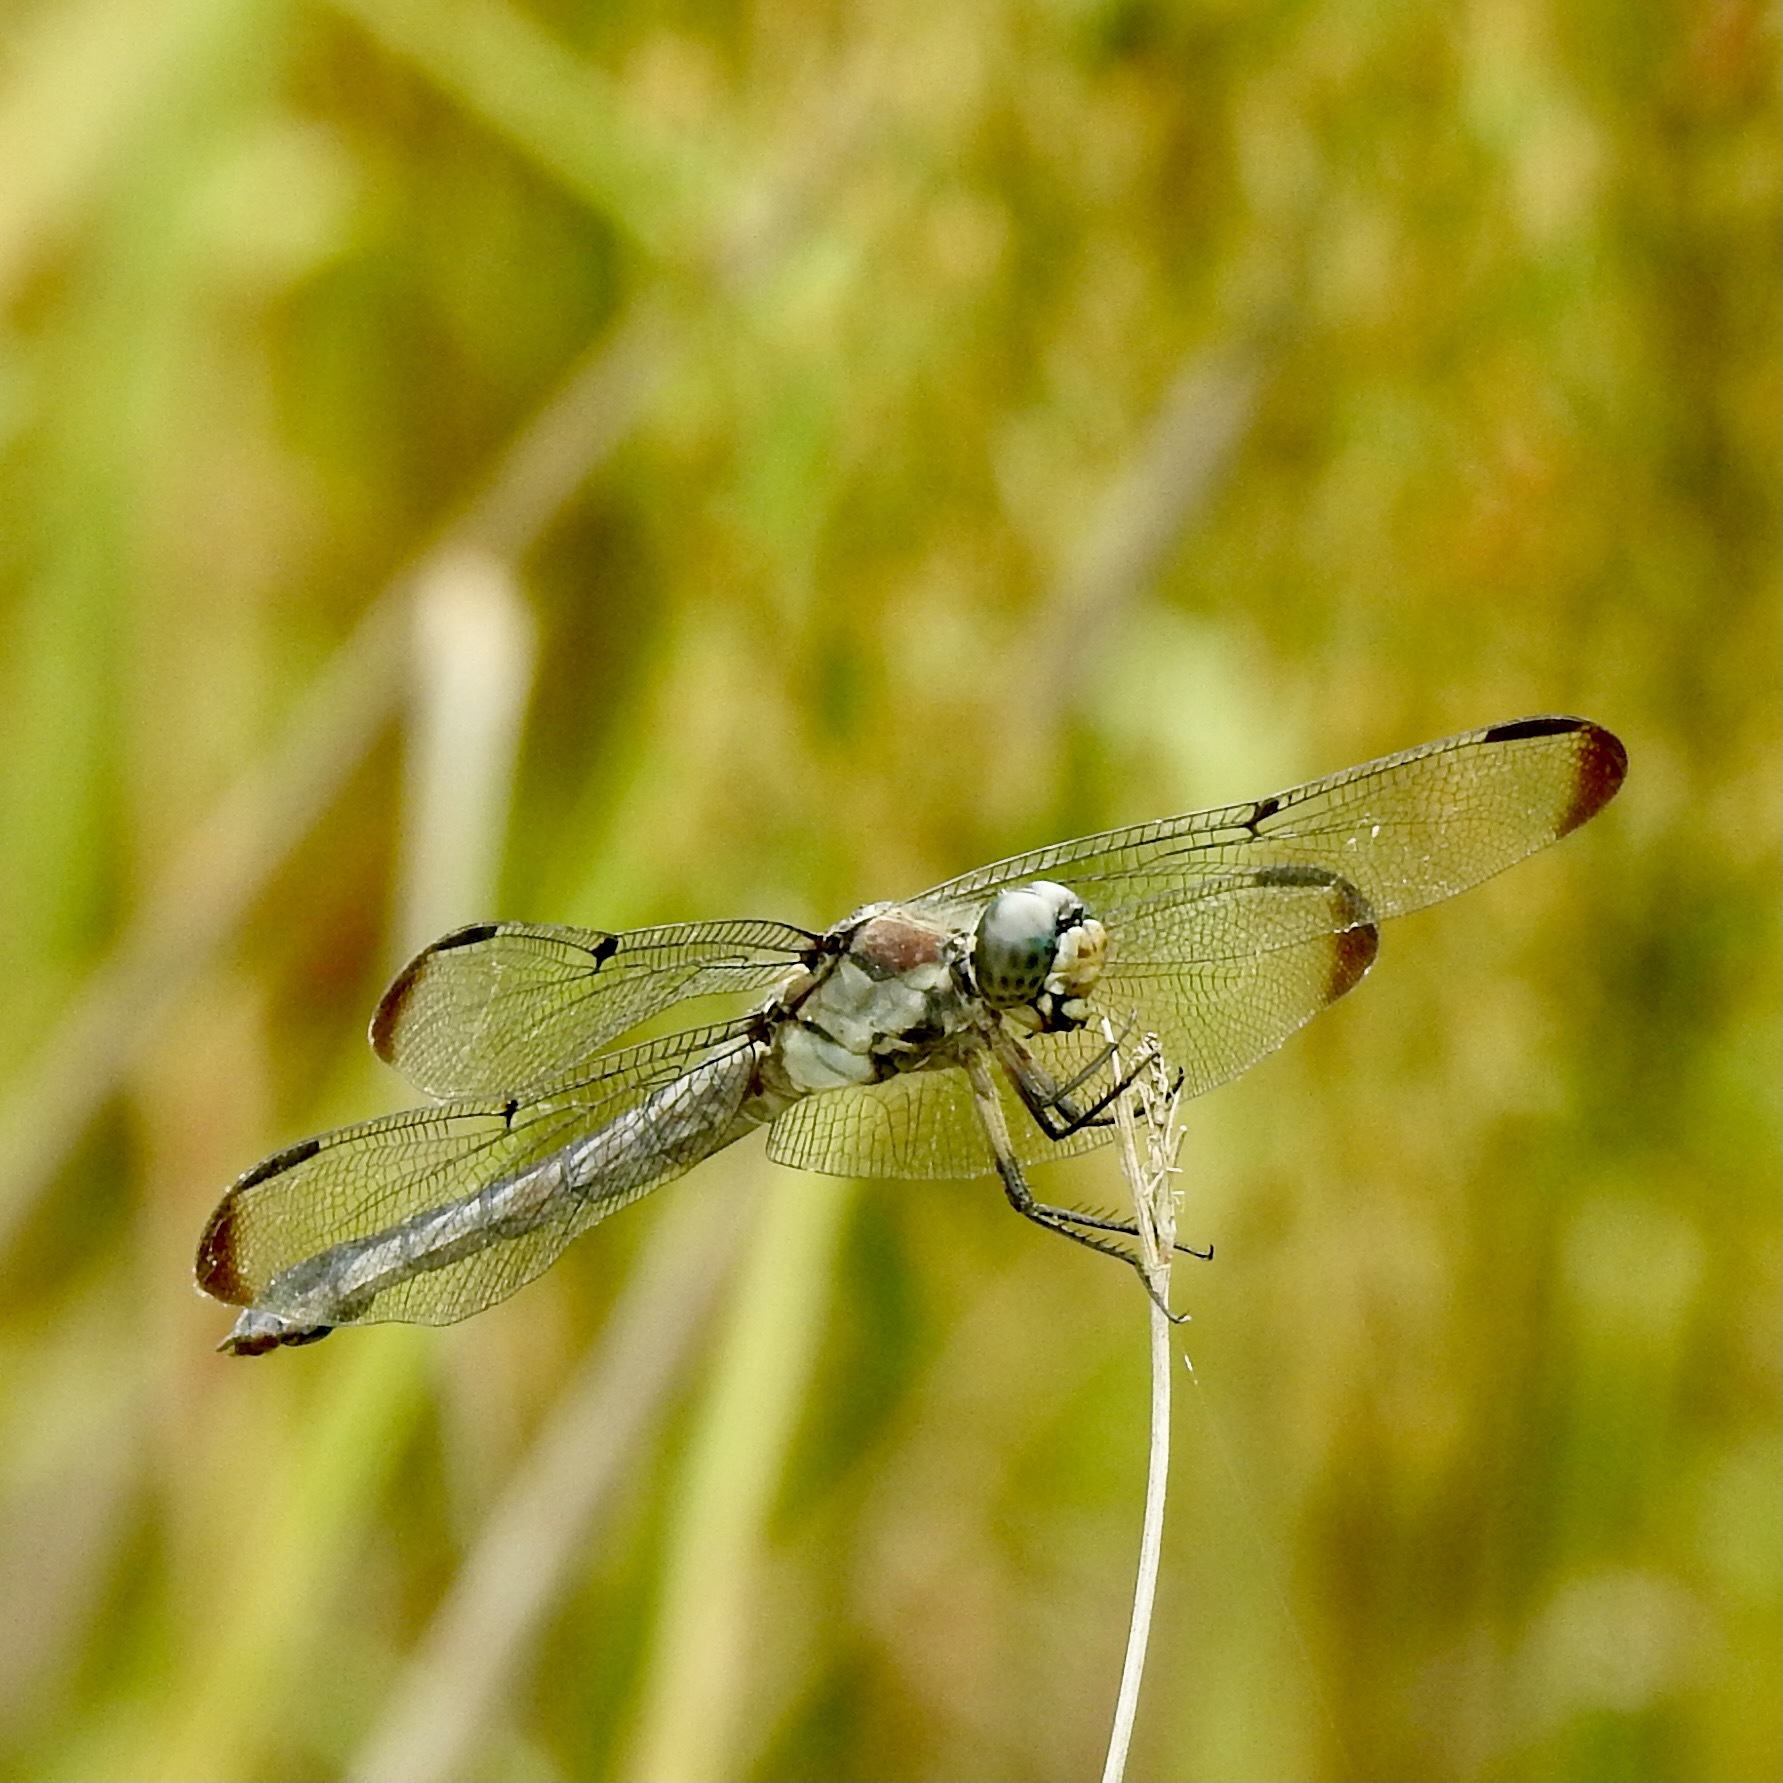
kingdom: Animalia
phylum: Arthropoda
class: Insecta
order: Odonata
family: Libellulidae
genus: Libellula
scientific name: Libellula vibrans
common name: Great blue skimmer
